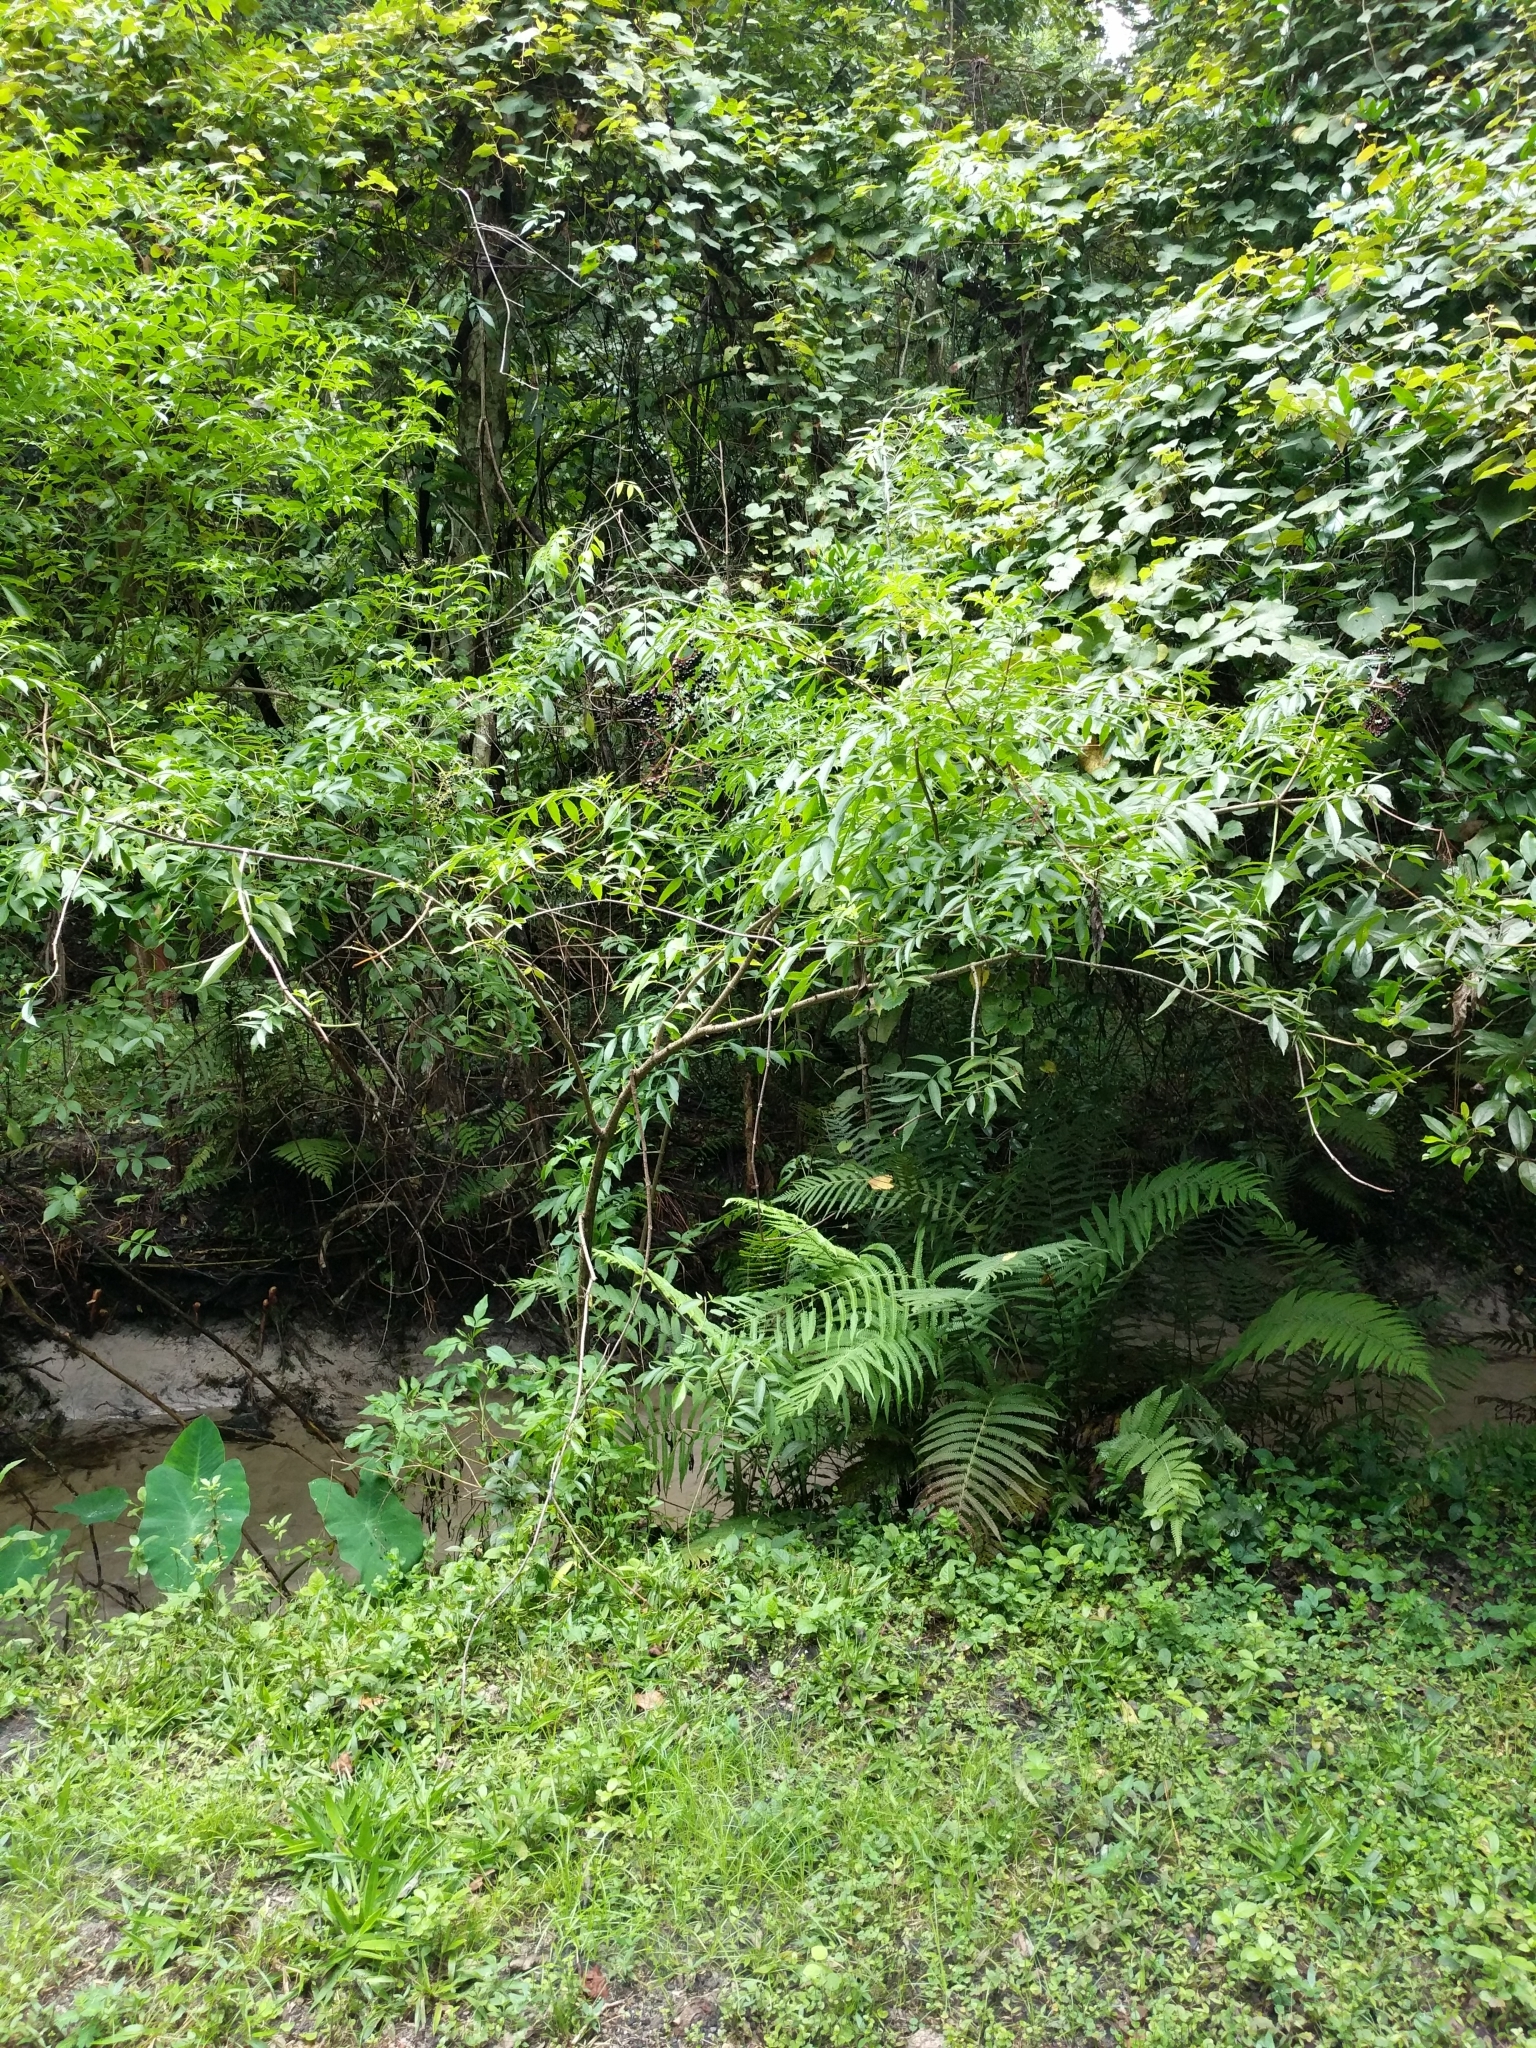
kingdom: Plantae
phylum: Tracheophyta
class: Magnoliopsida
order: Dipsacales
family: Viburnaceae
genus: Sambucus
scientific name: Sambucus canadensis
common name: American elder
